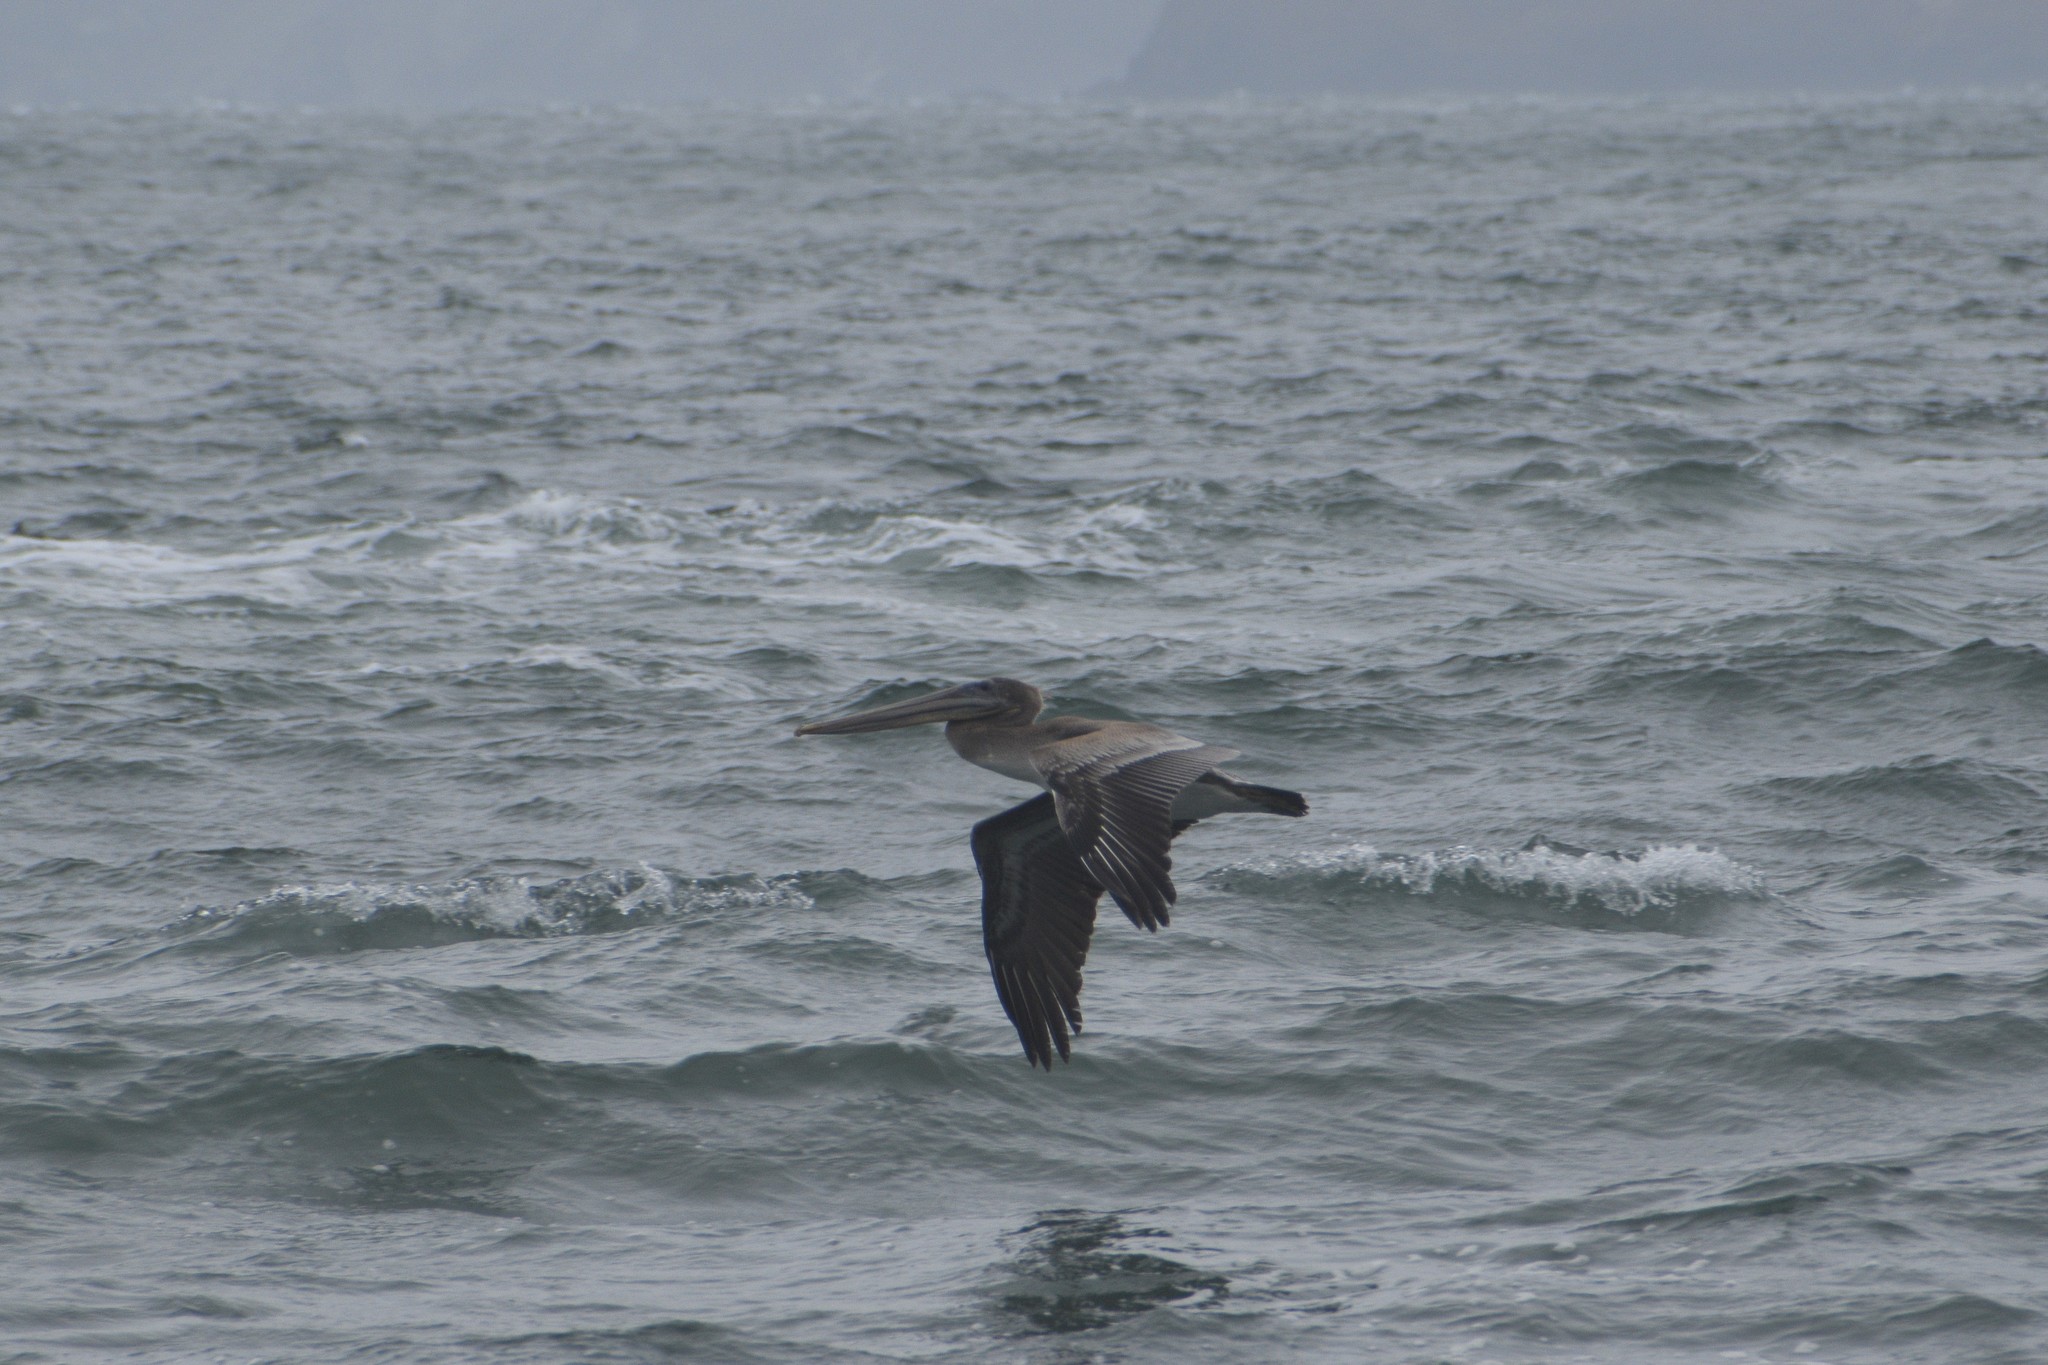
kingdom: Animalia
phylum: Chordata
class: Aves
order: Pelecaniformes
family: Pelecanidae
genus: Pelecanus
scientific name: Pelecanus occidentalis
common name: Brown pelican
